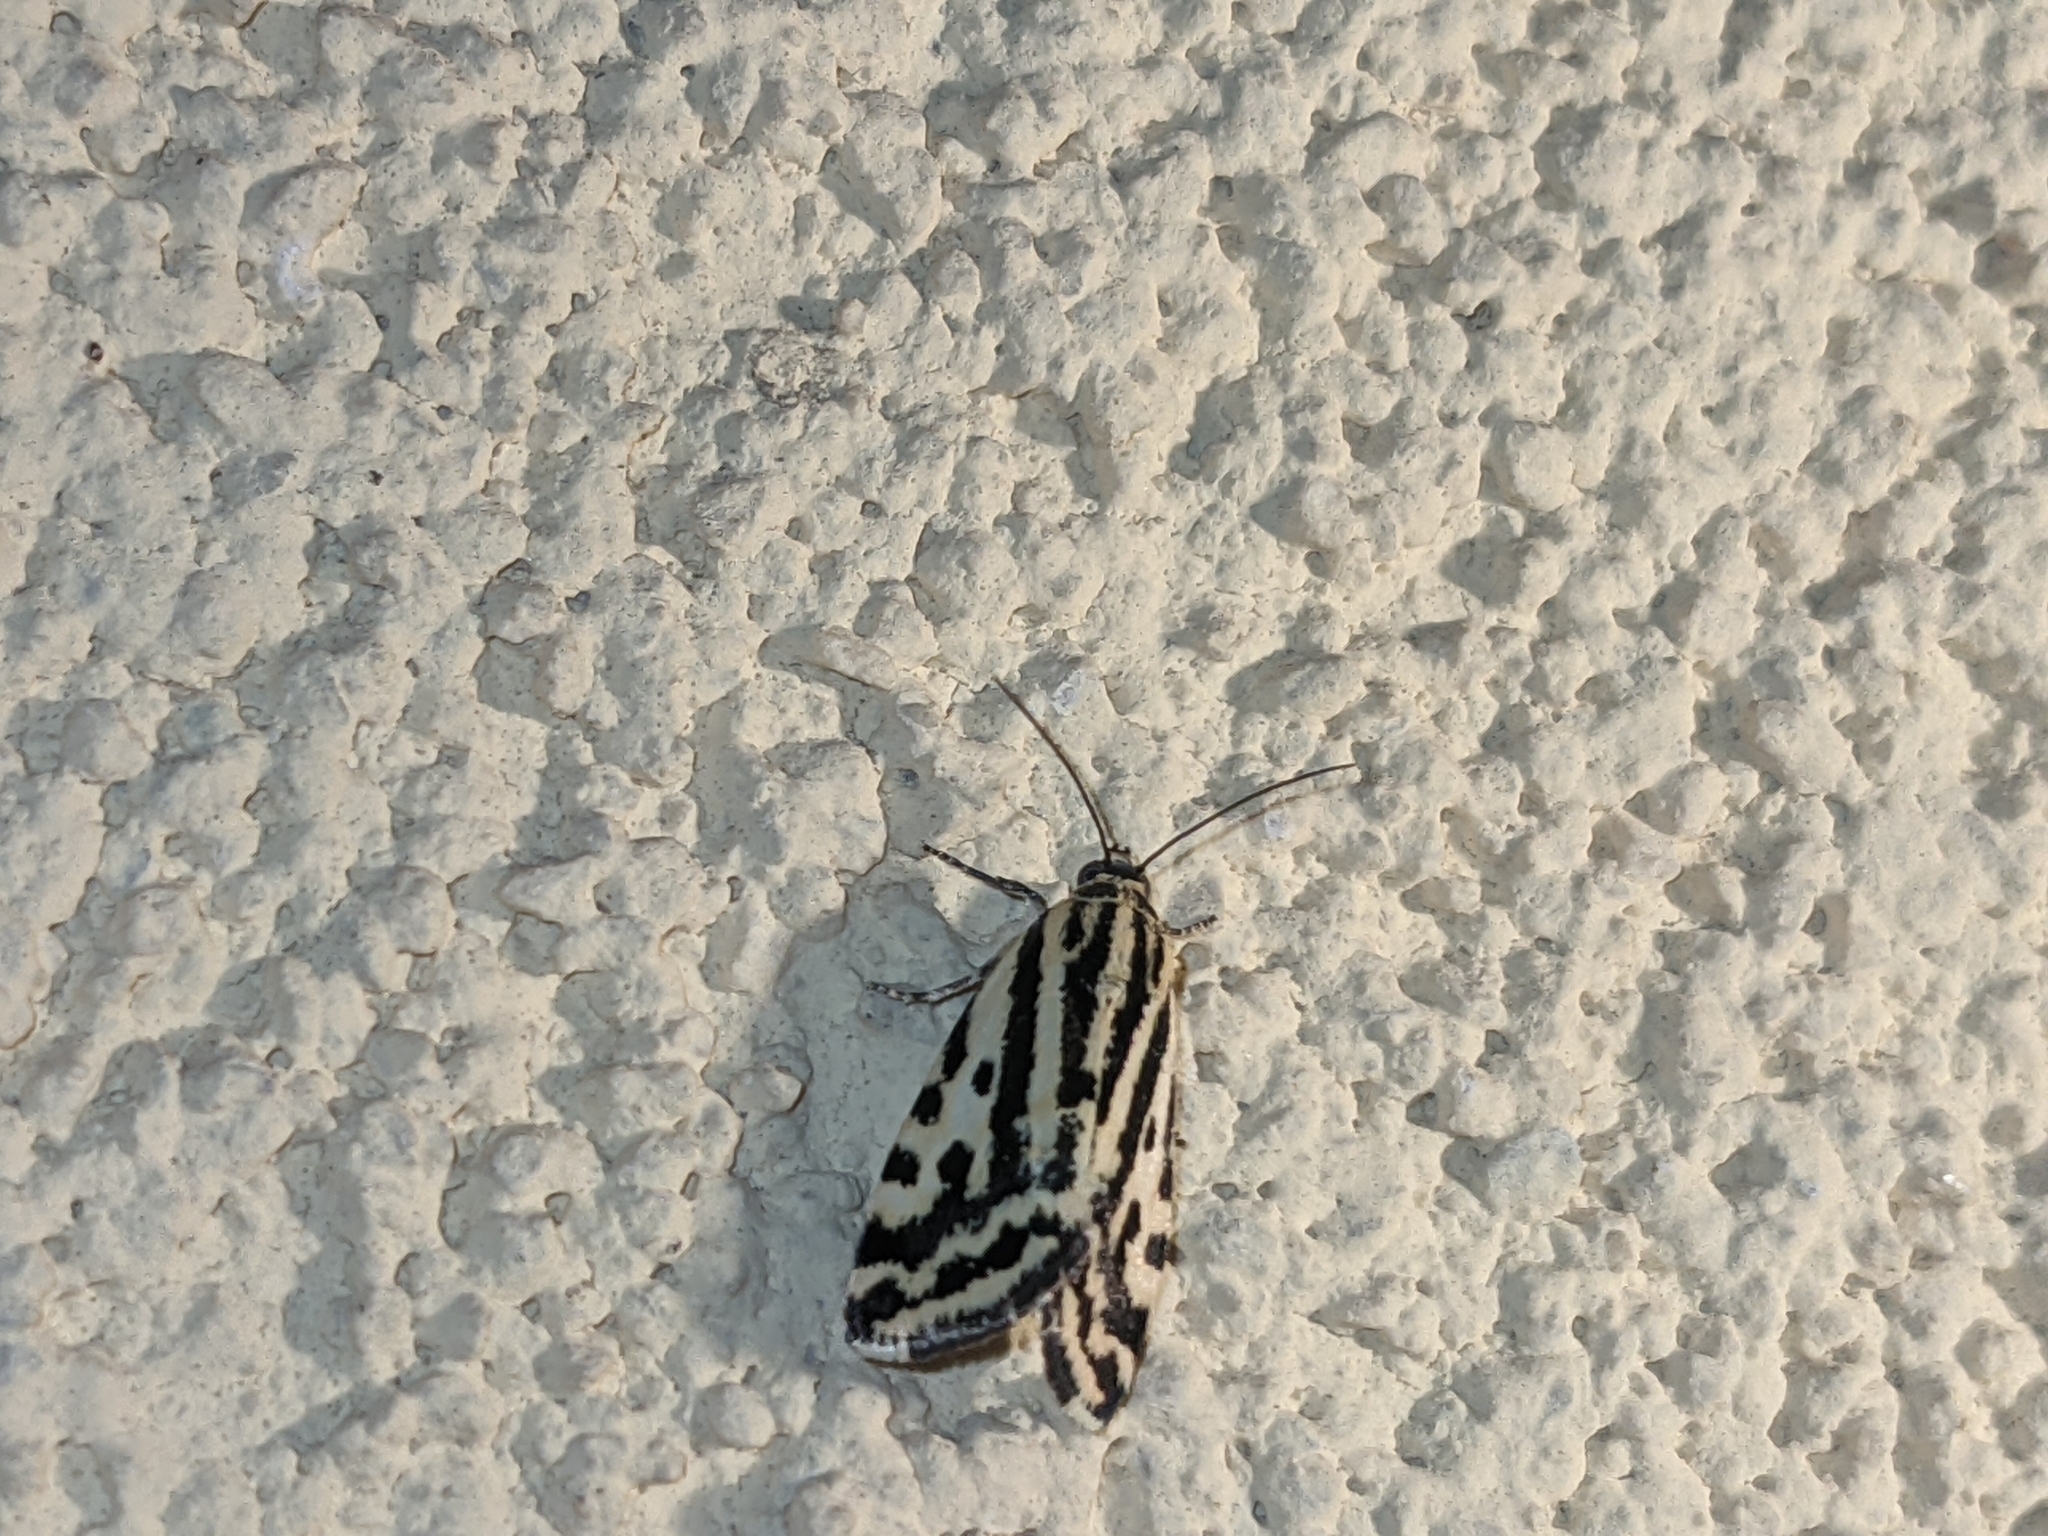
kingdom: Animalia
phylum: Arthropoda
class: Insecta
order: Lepidoptera
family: Noctuidae
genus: Acontia
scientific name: Acontia trabealis
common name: Spotted sulphur
